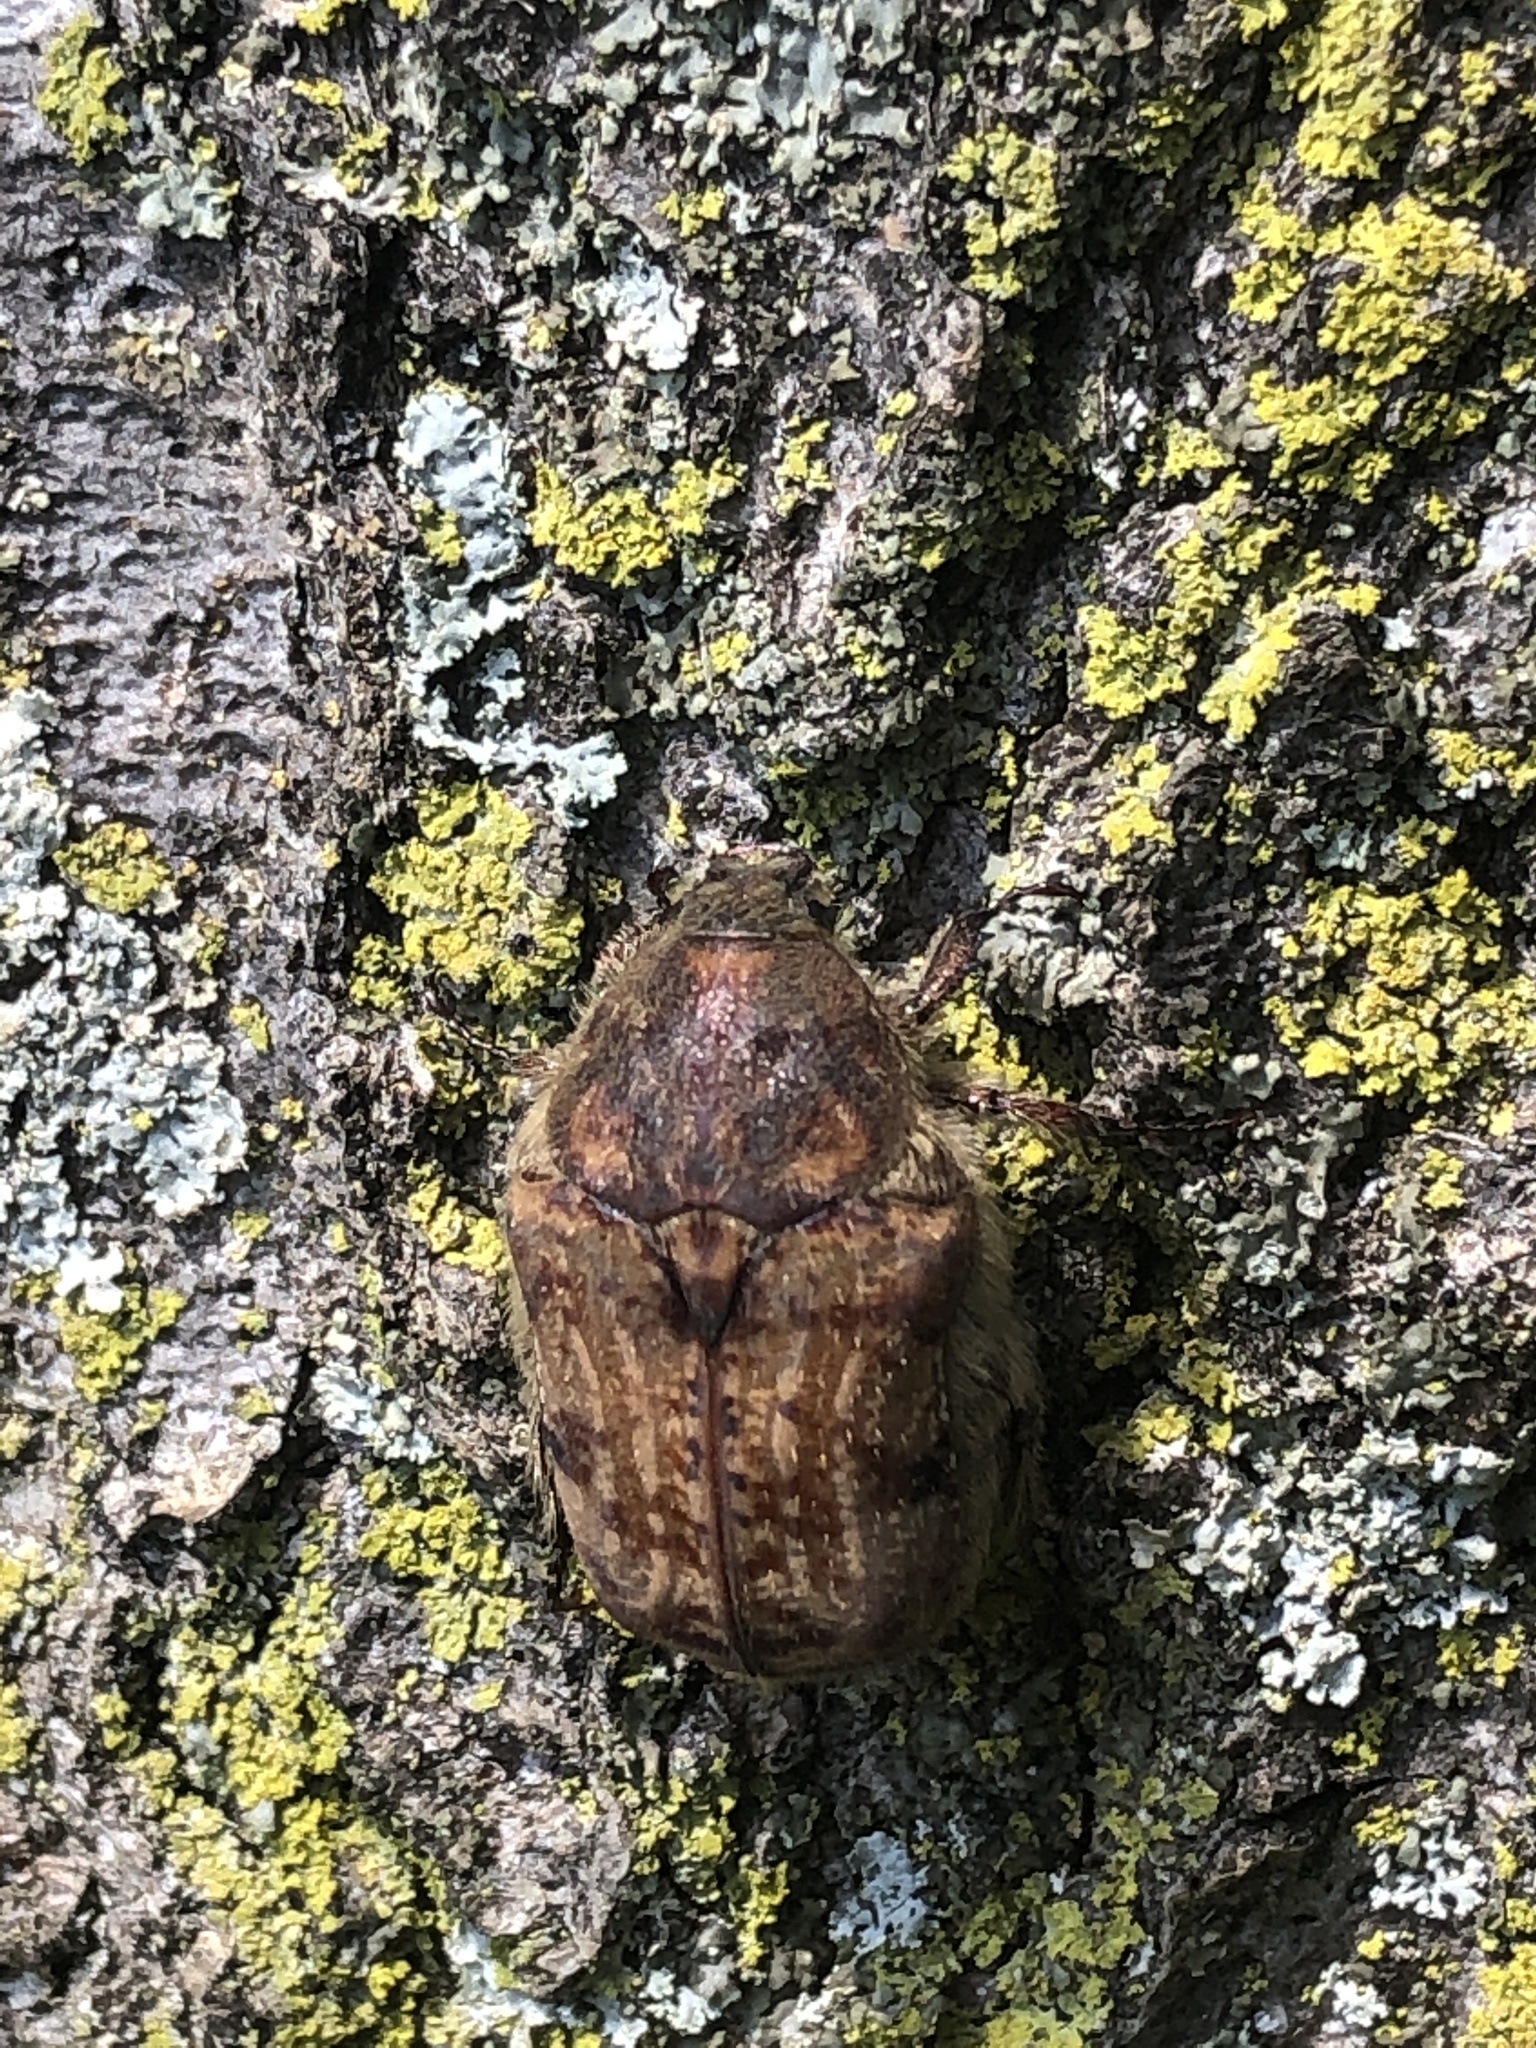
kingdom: Animalia
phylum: Arthropoda
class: Insecta
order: Coleoptera
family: Scarabaeidae
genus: Euphoria
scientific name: Euphoria inda
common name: Bumble flower beetle
